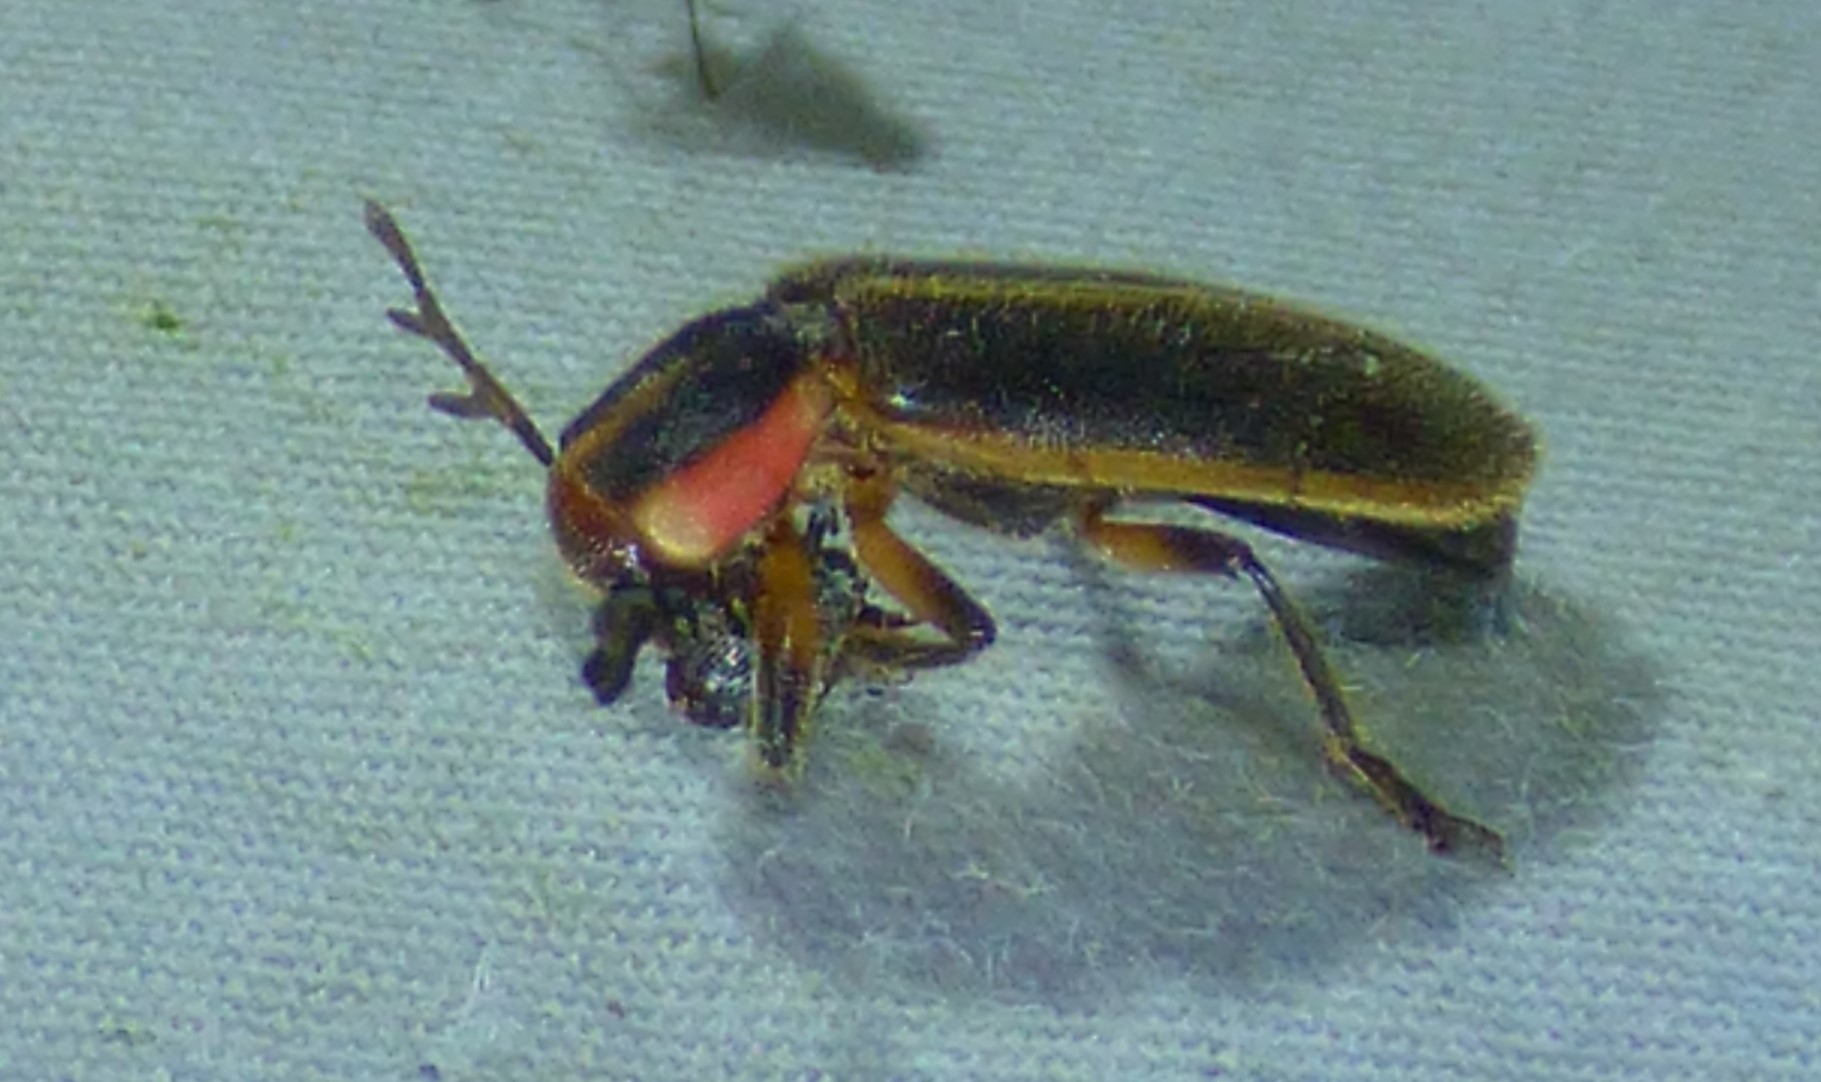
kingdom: Animalia
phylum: Arthropoda
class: Insecta
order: Coleoptera
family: Cleridae
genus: Chariessa
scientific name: Chariessa pilosa
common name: Pilose checkered beetle
